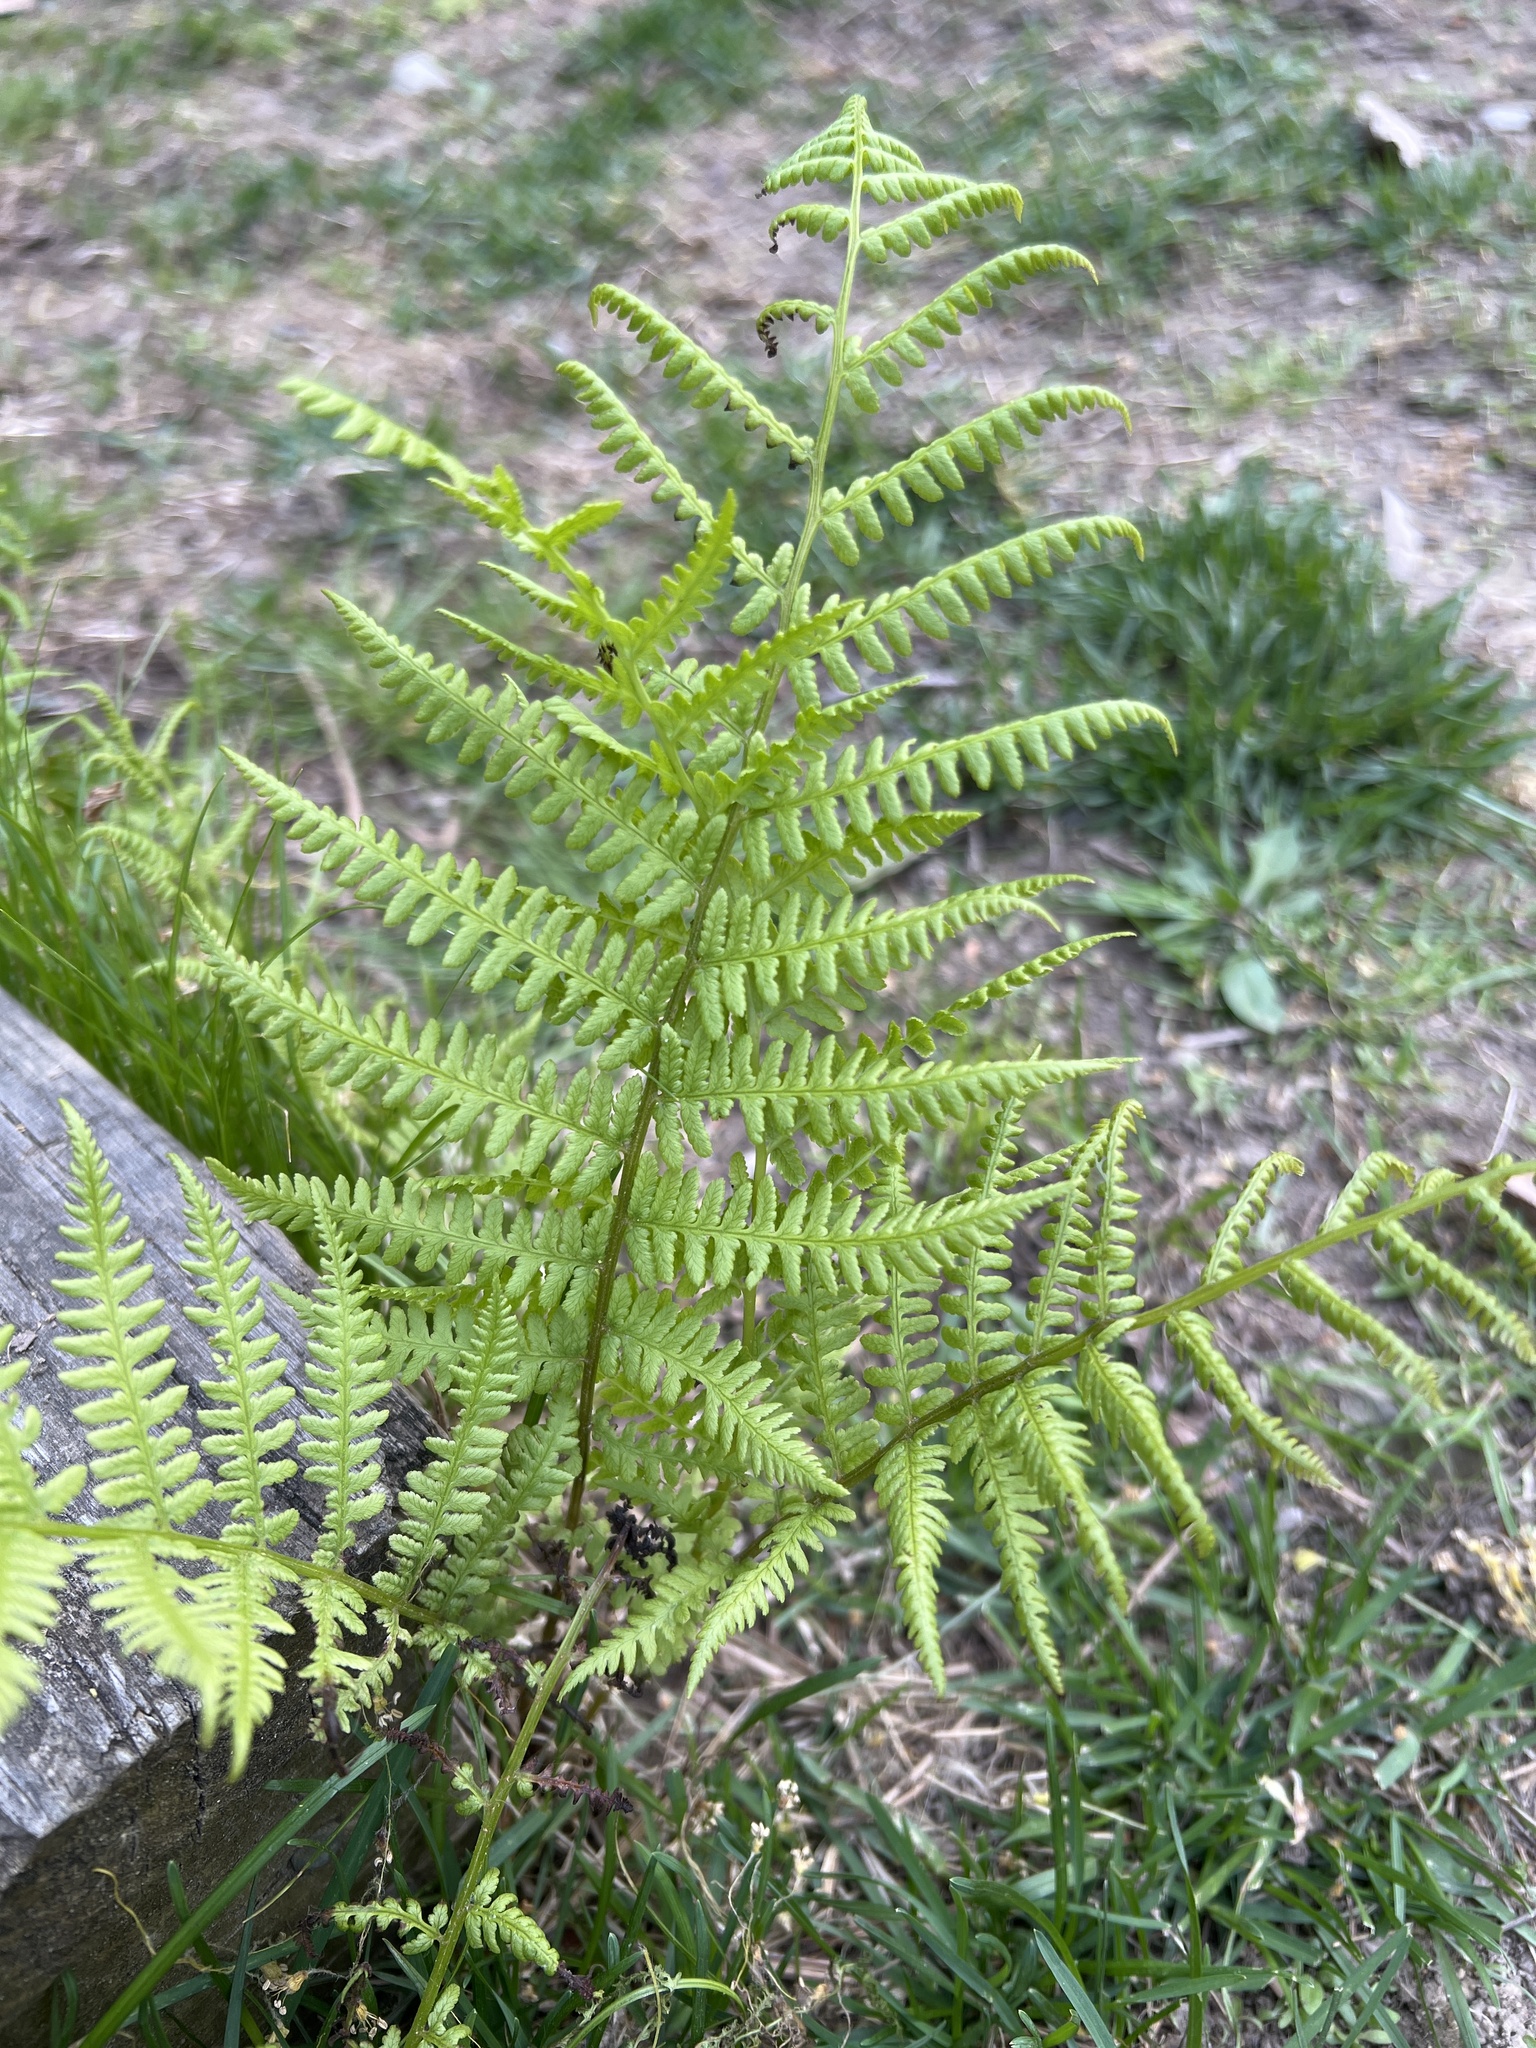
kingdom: Plantae
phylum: Tracheophyta
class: Polypodiopsida
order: Polypodiales
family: Athyriaceae
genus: Athyrium
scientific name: Athyrium angustum
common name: Northern lady fern
